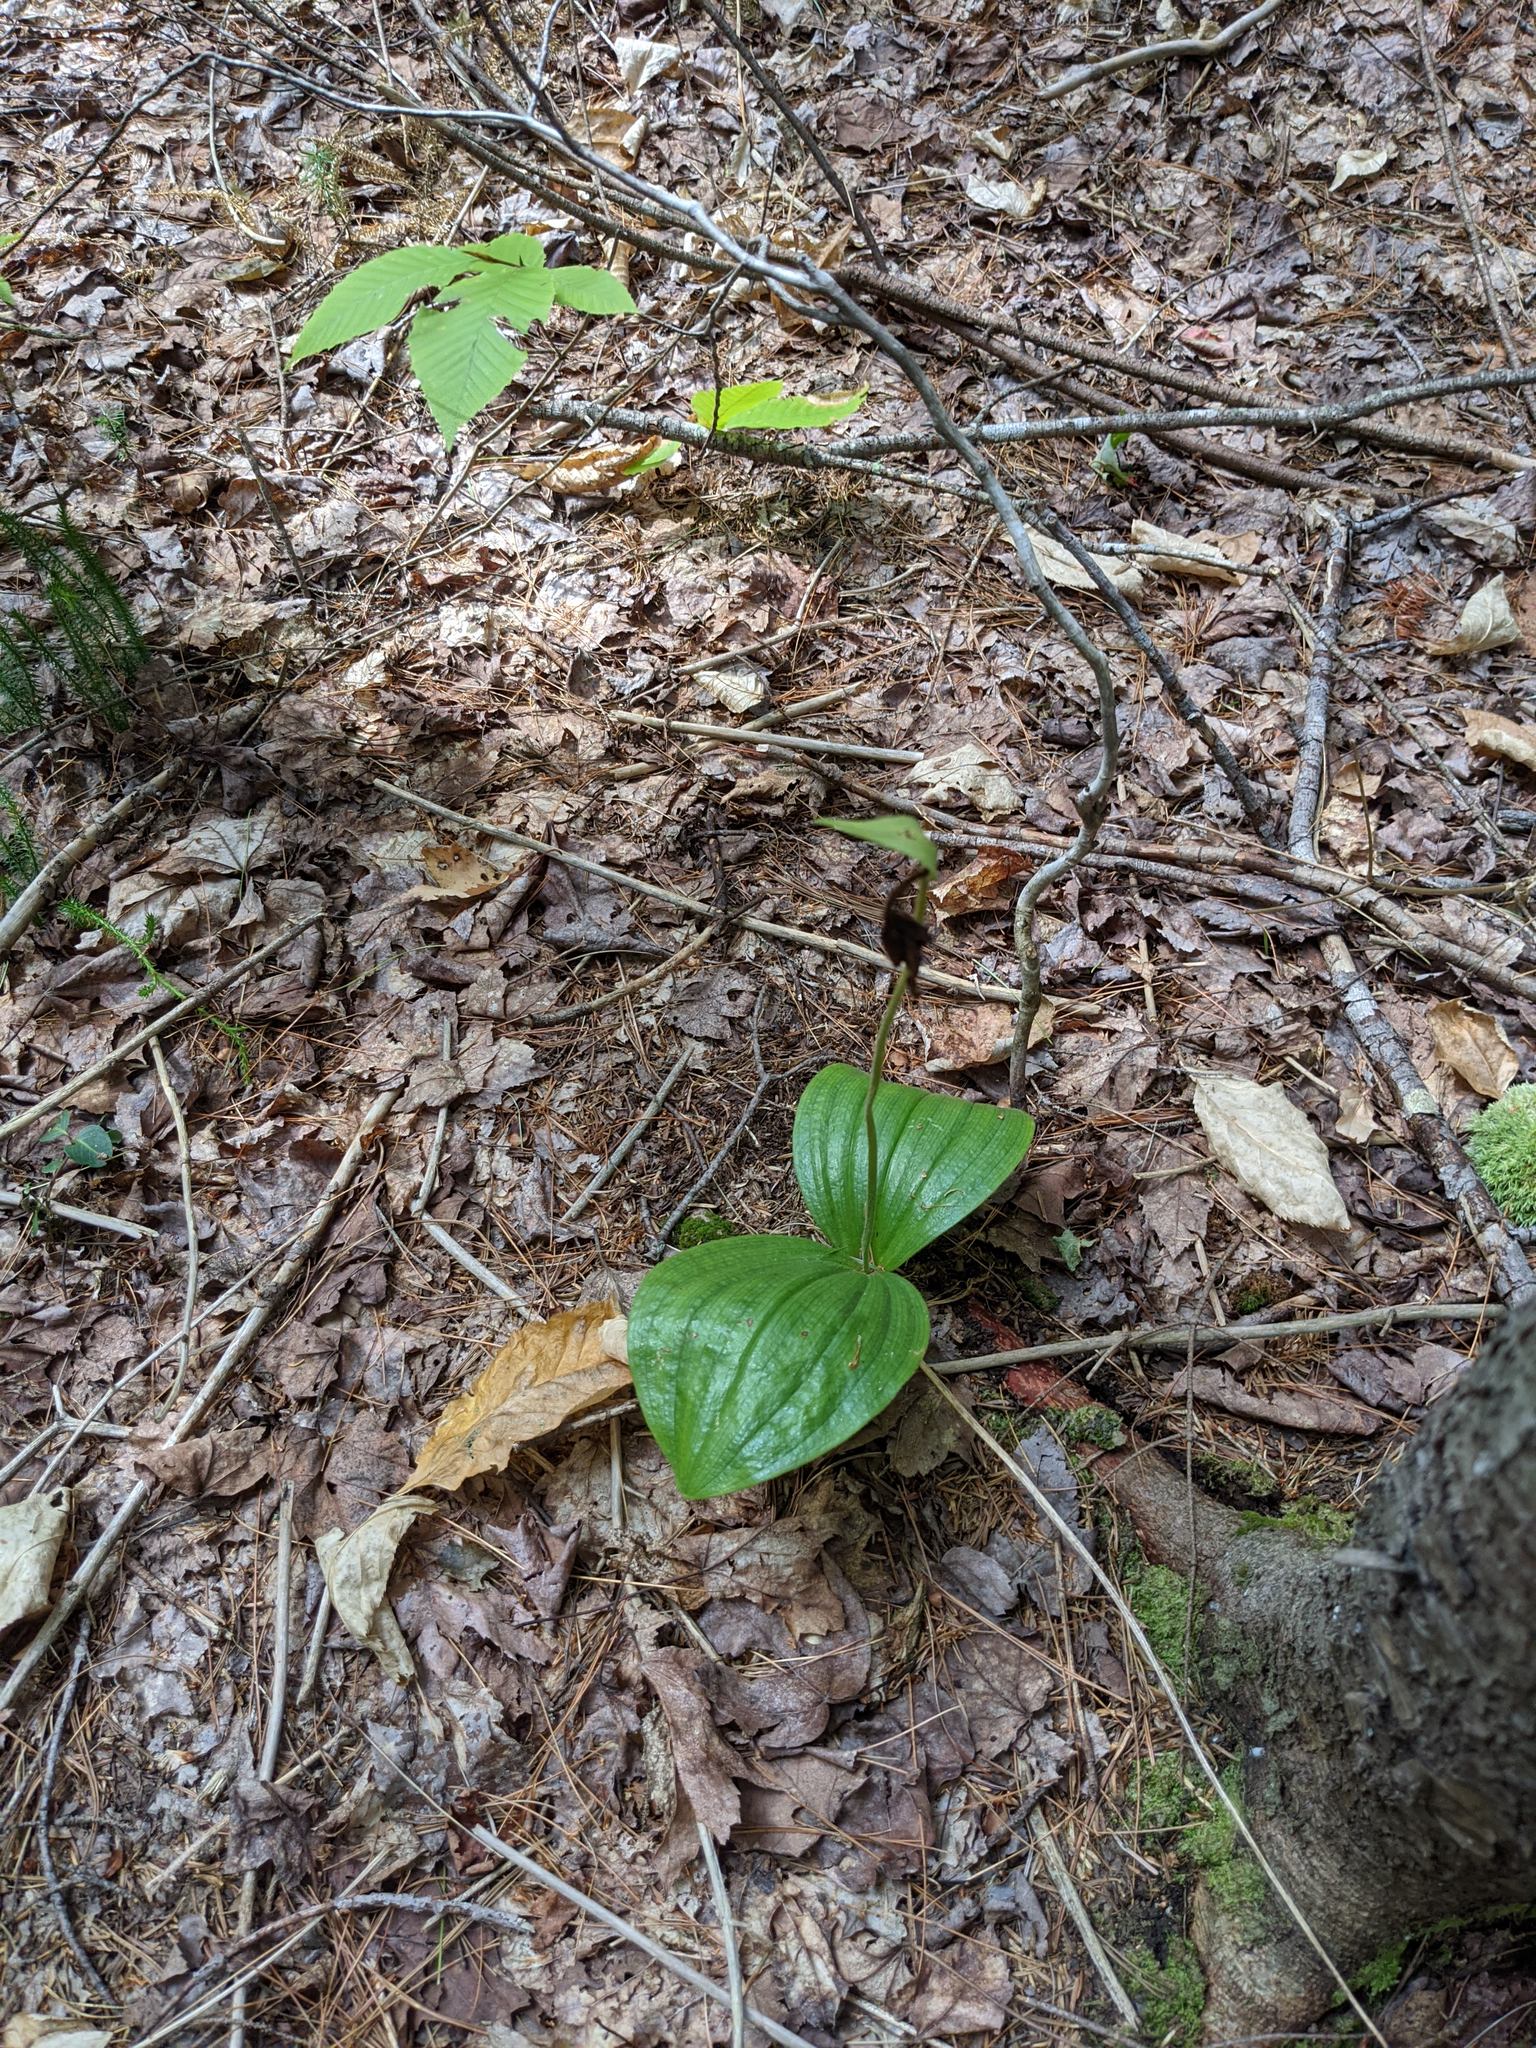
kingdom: Plantae
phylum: Tracheophyta
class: Liliopsida
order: Asparagales
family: Orchidaceae
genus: Cypripedium
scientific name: Cypripedium acaule
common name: Pink lady's-slipper
